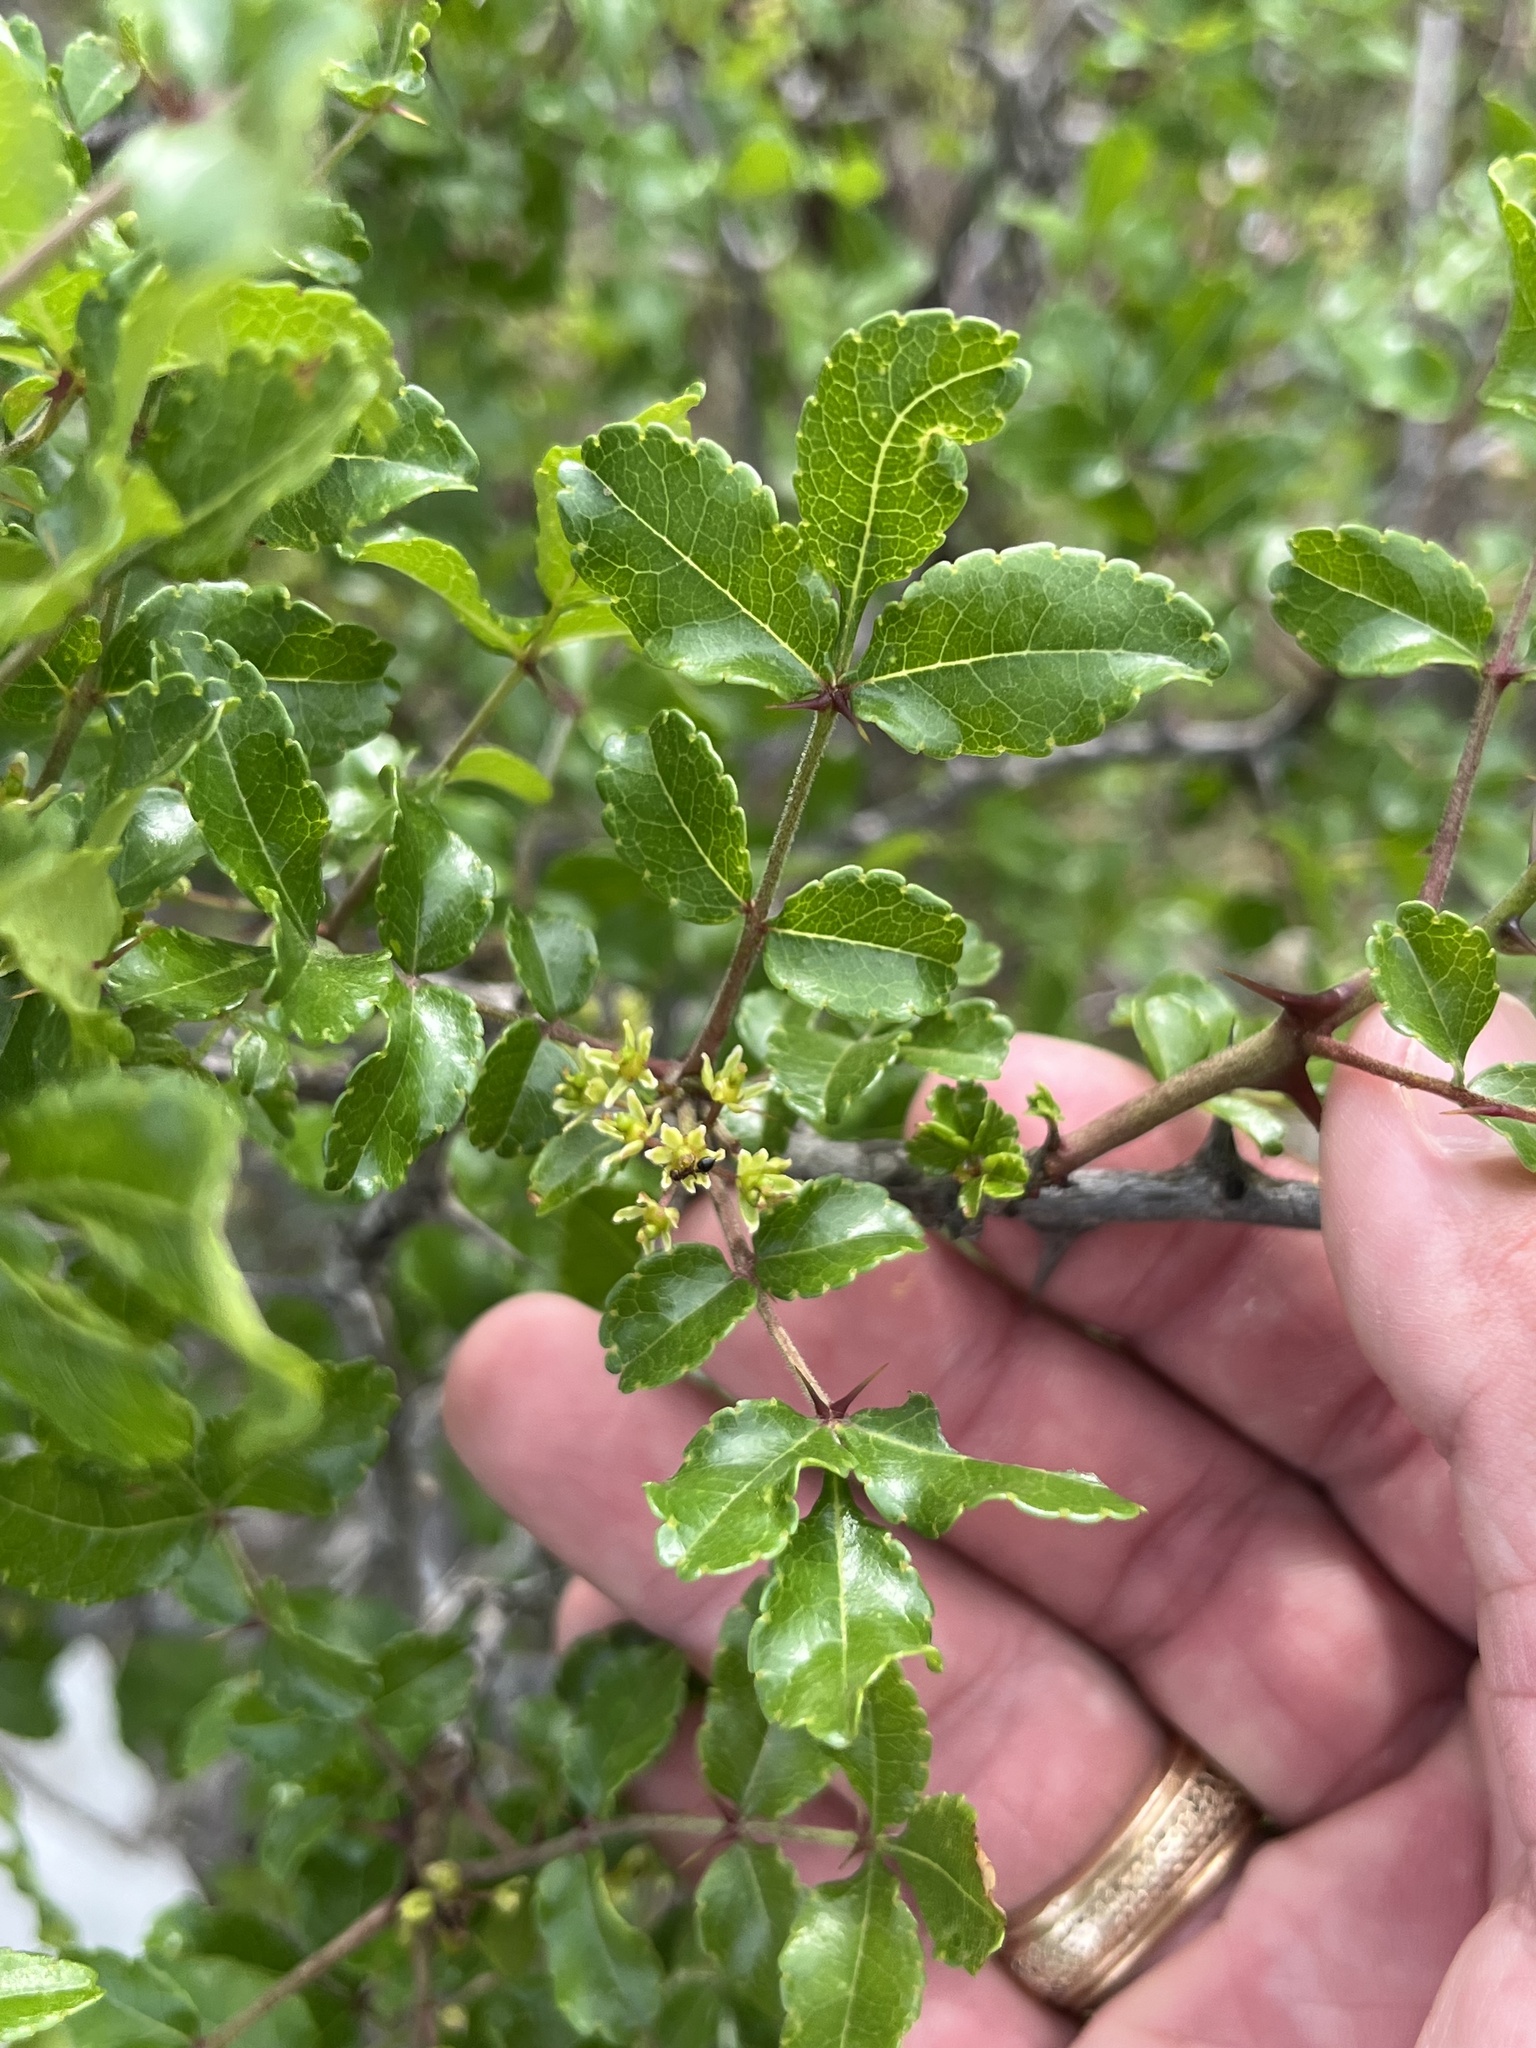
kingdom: Plantae
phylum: Tracheophyta
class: Magnoliopsida
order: Sapindales
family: Rutaceae
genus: Zanthoxylum
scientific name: Zanthoxylum clava-herculis
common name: Hercules'-club
